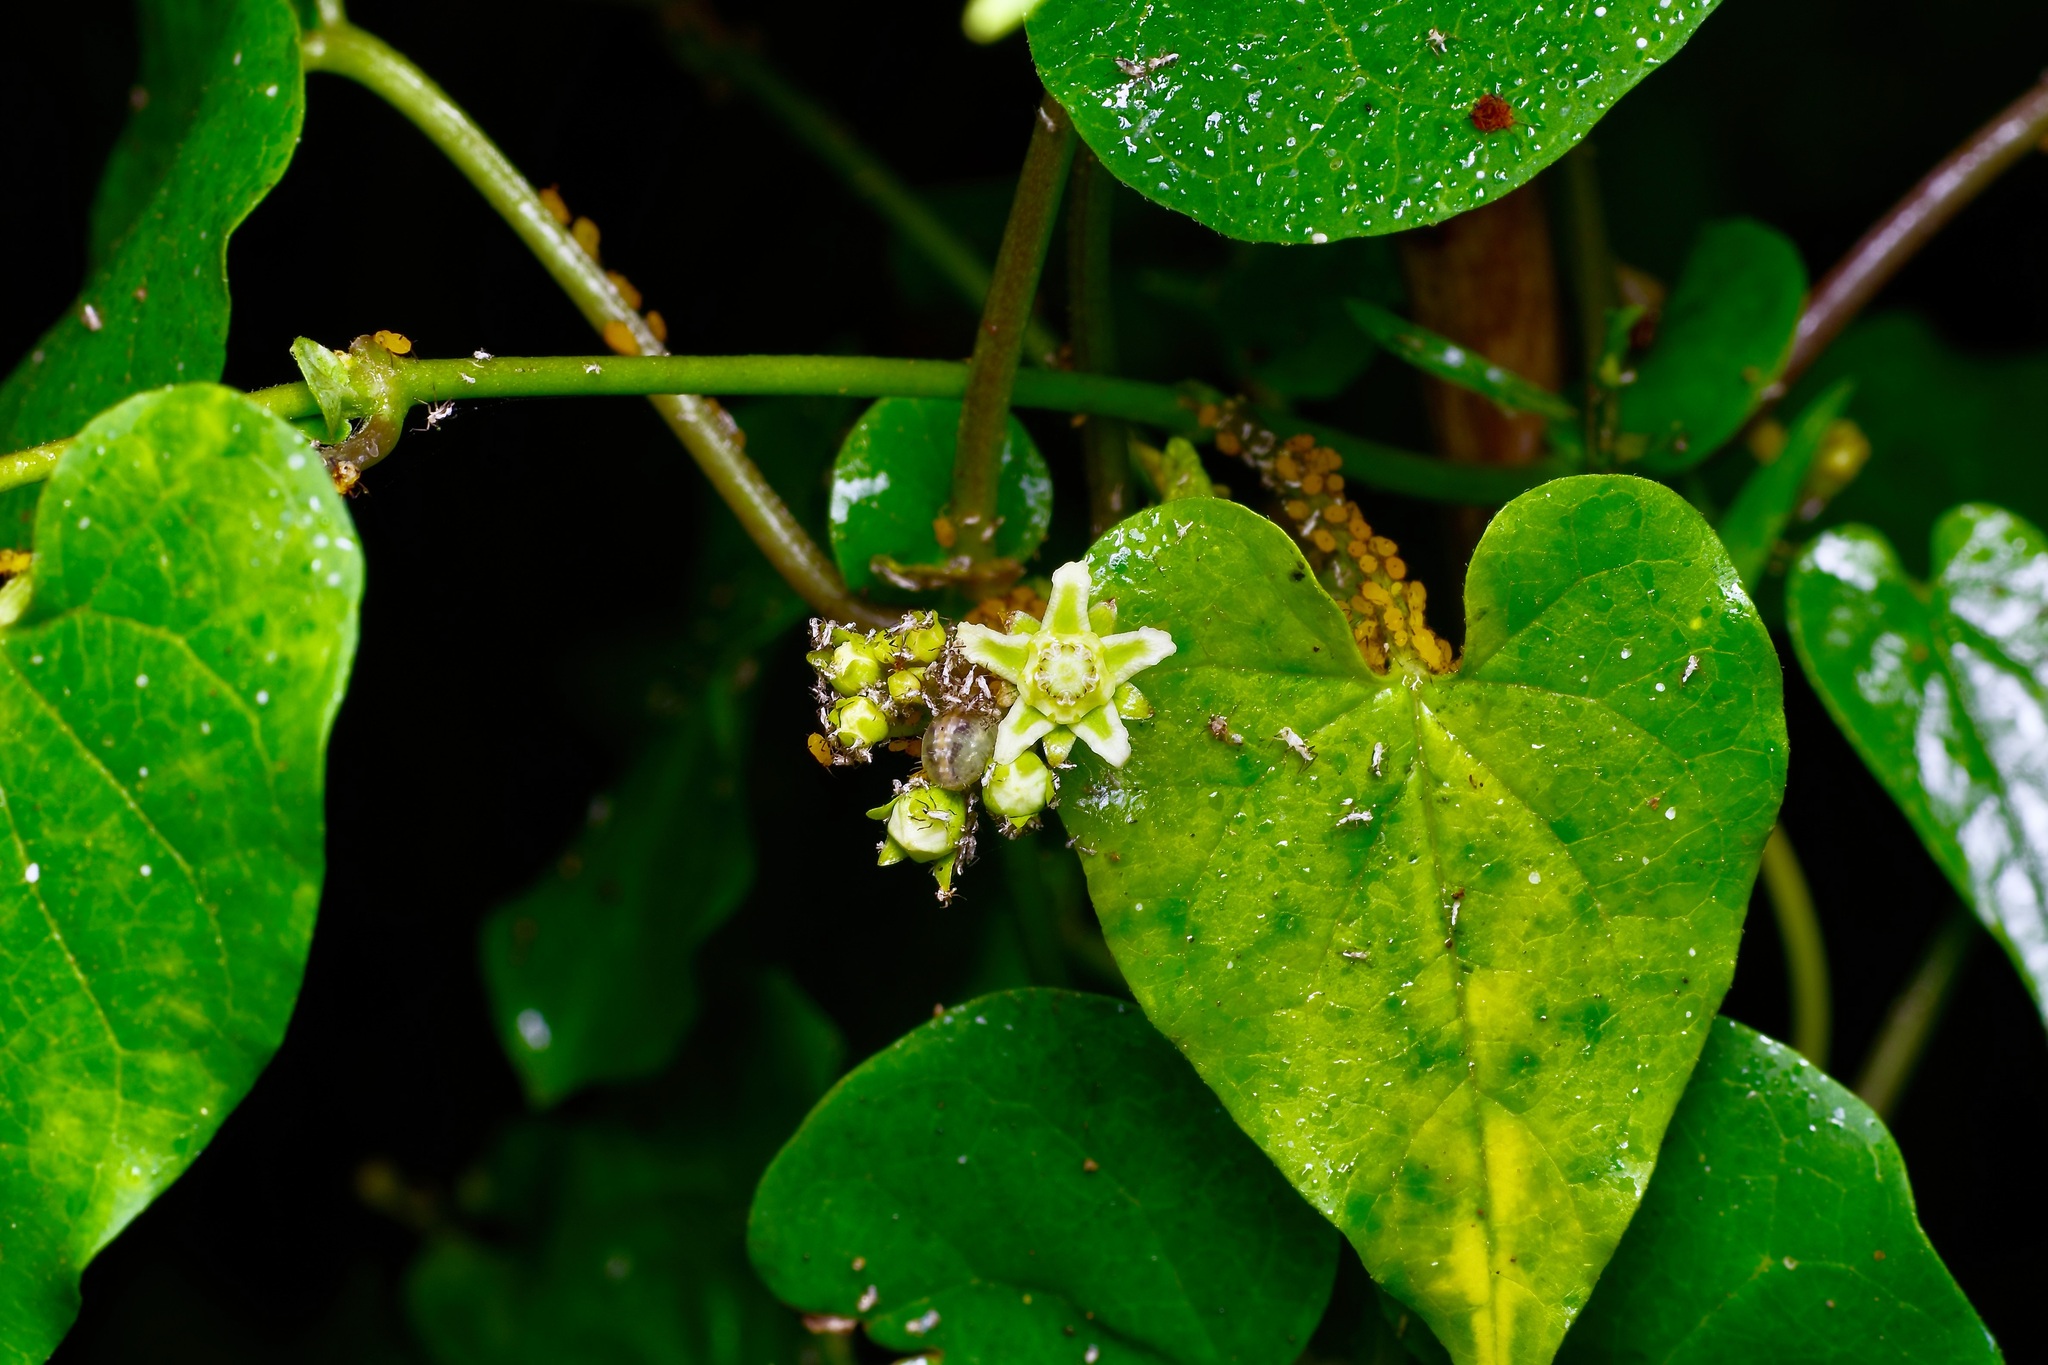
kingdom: Plantae
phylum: Tracheophyta
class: Magnoliopsida
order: Gentianales
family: Apocynaceae
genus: Cynanchum
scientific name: Cynanchum racemosum
